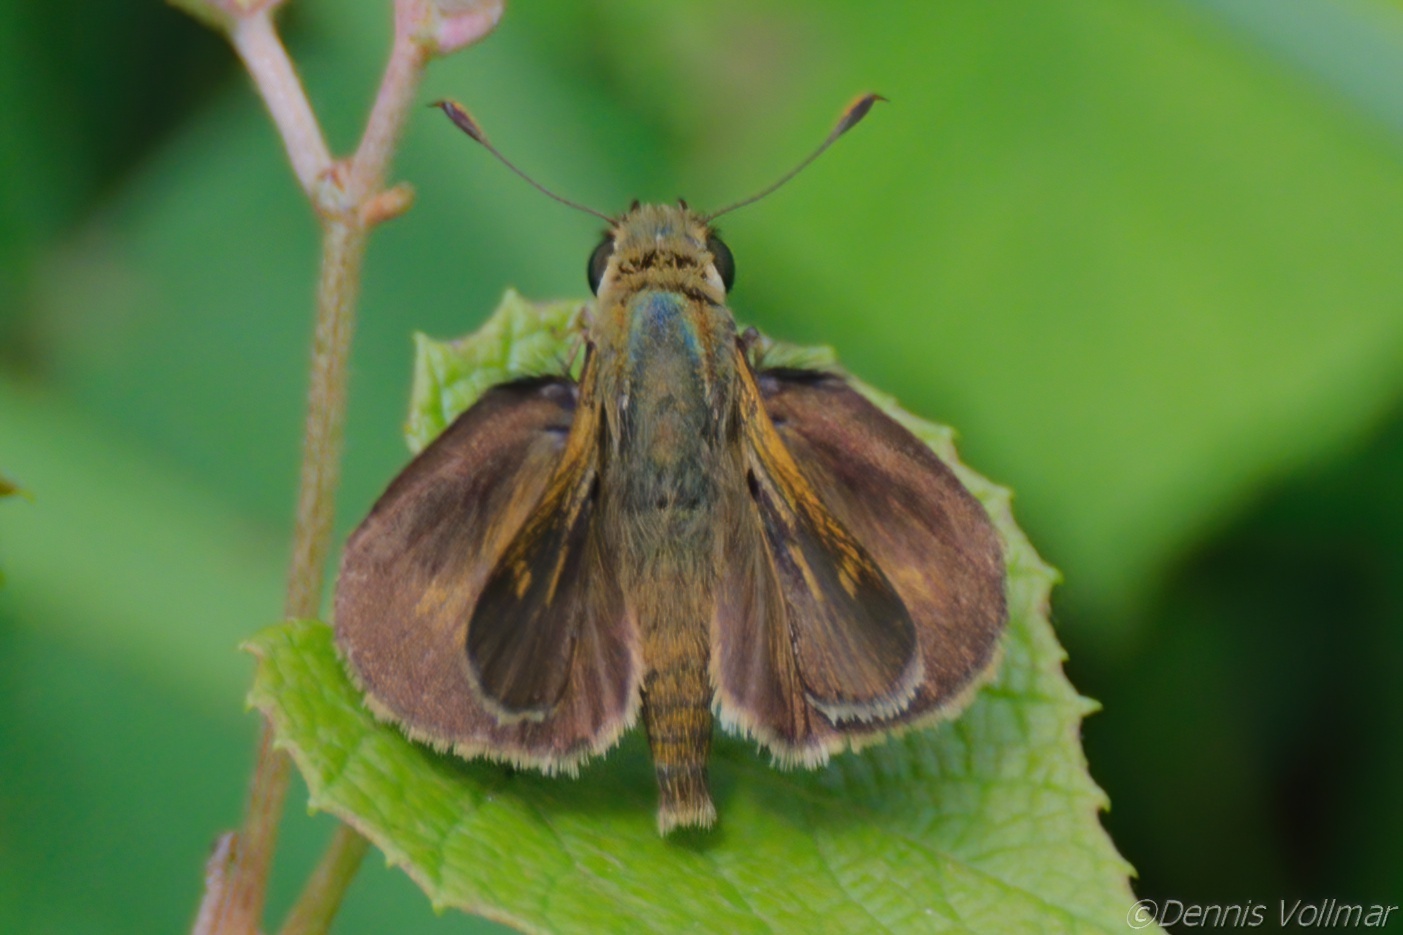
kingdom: Animalia
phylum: Arthropoda
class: Insecta
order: Lepidoptera
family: Hesperiidae
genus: Polites
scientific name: Polites egeremet
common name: Northern broken-dash
